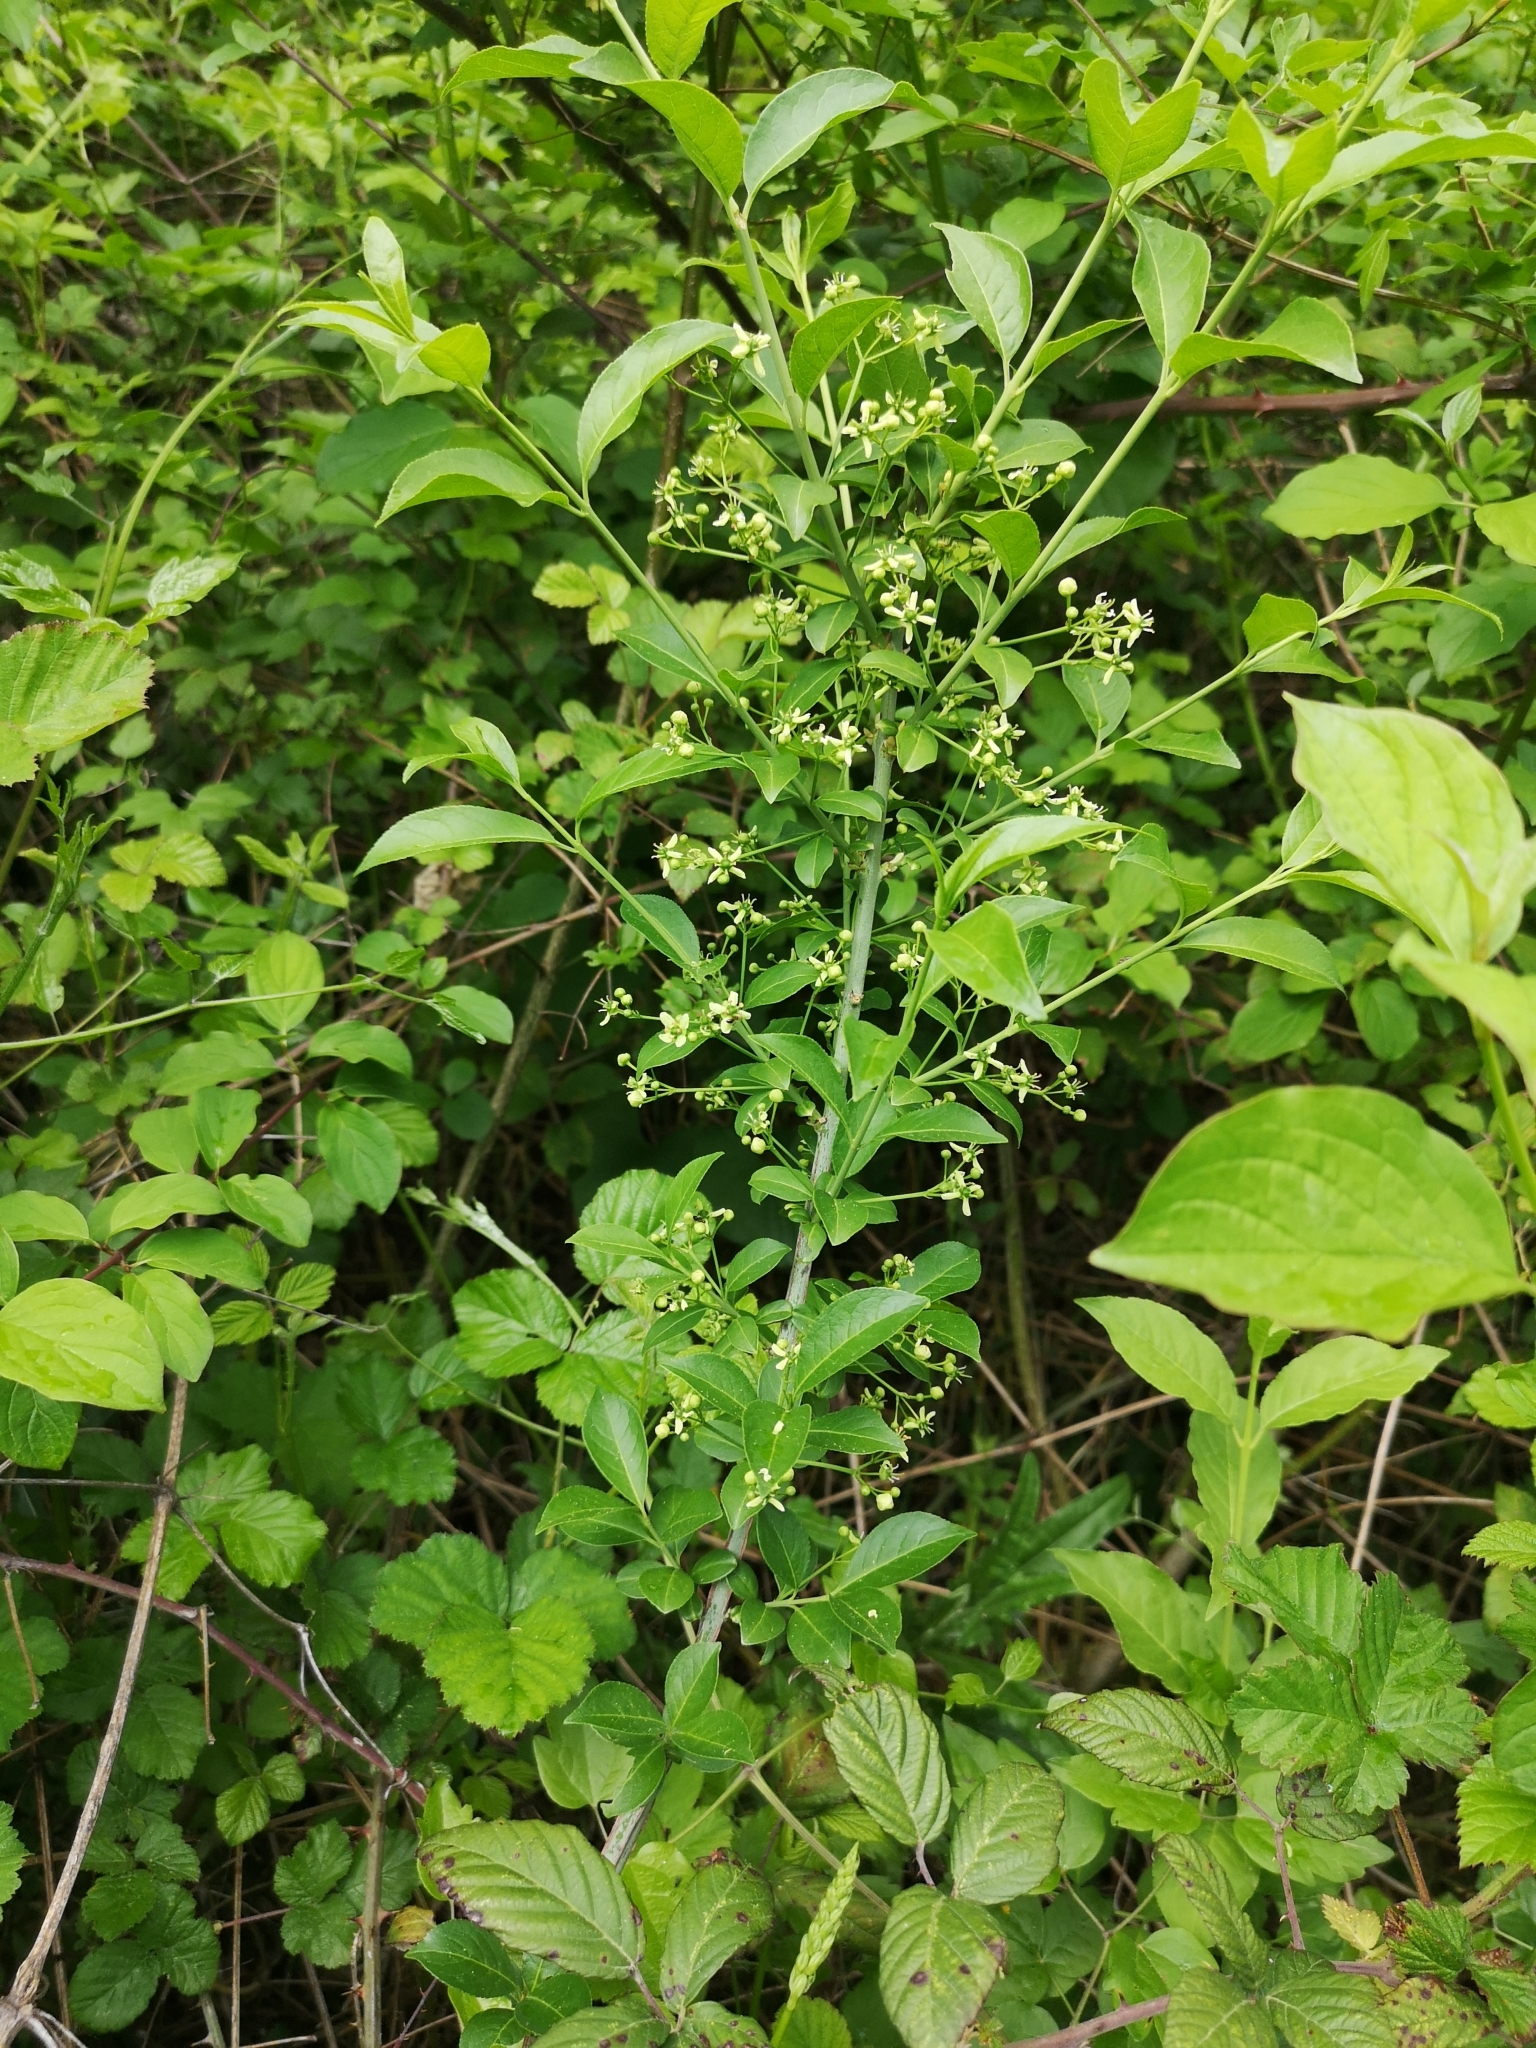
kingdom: Plantae
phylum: Tracheophyta
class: Magnoliopsida
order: Celastrales
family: Celastraceae
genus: Euonymus
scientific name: Euonymus europaeus
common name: Spindle
